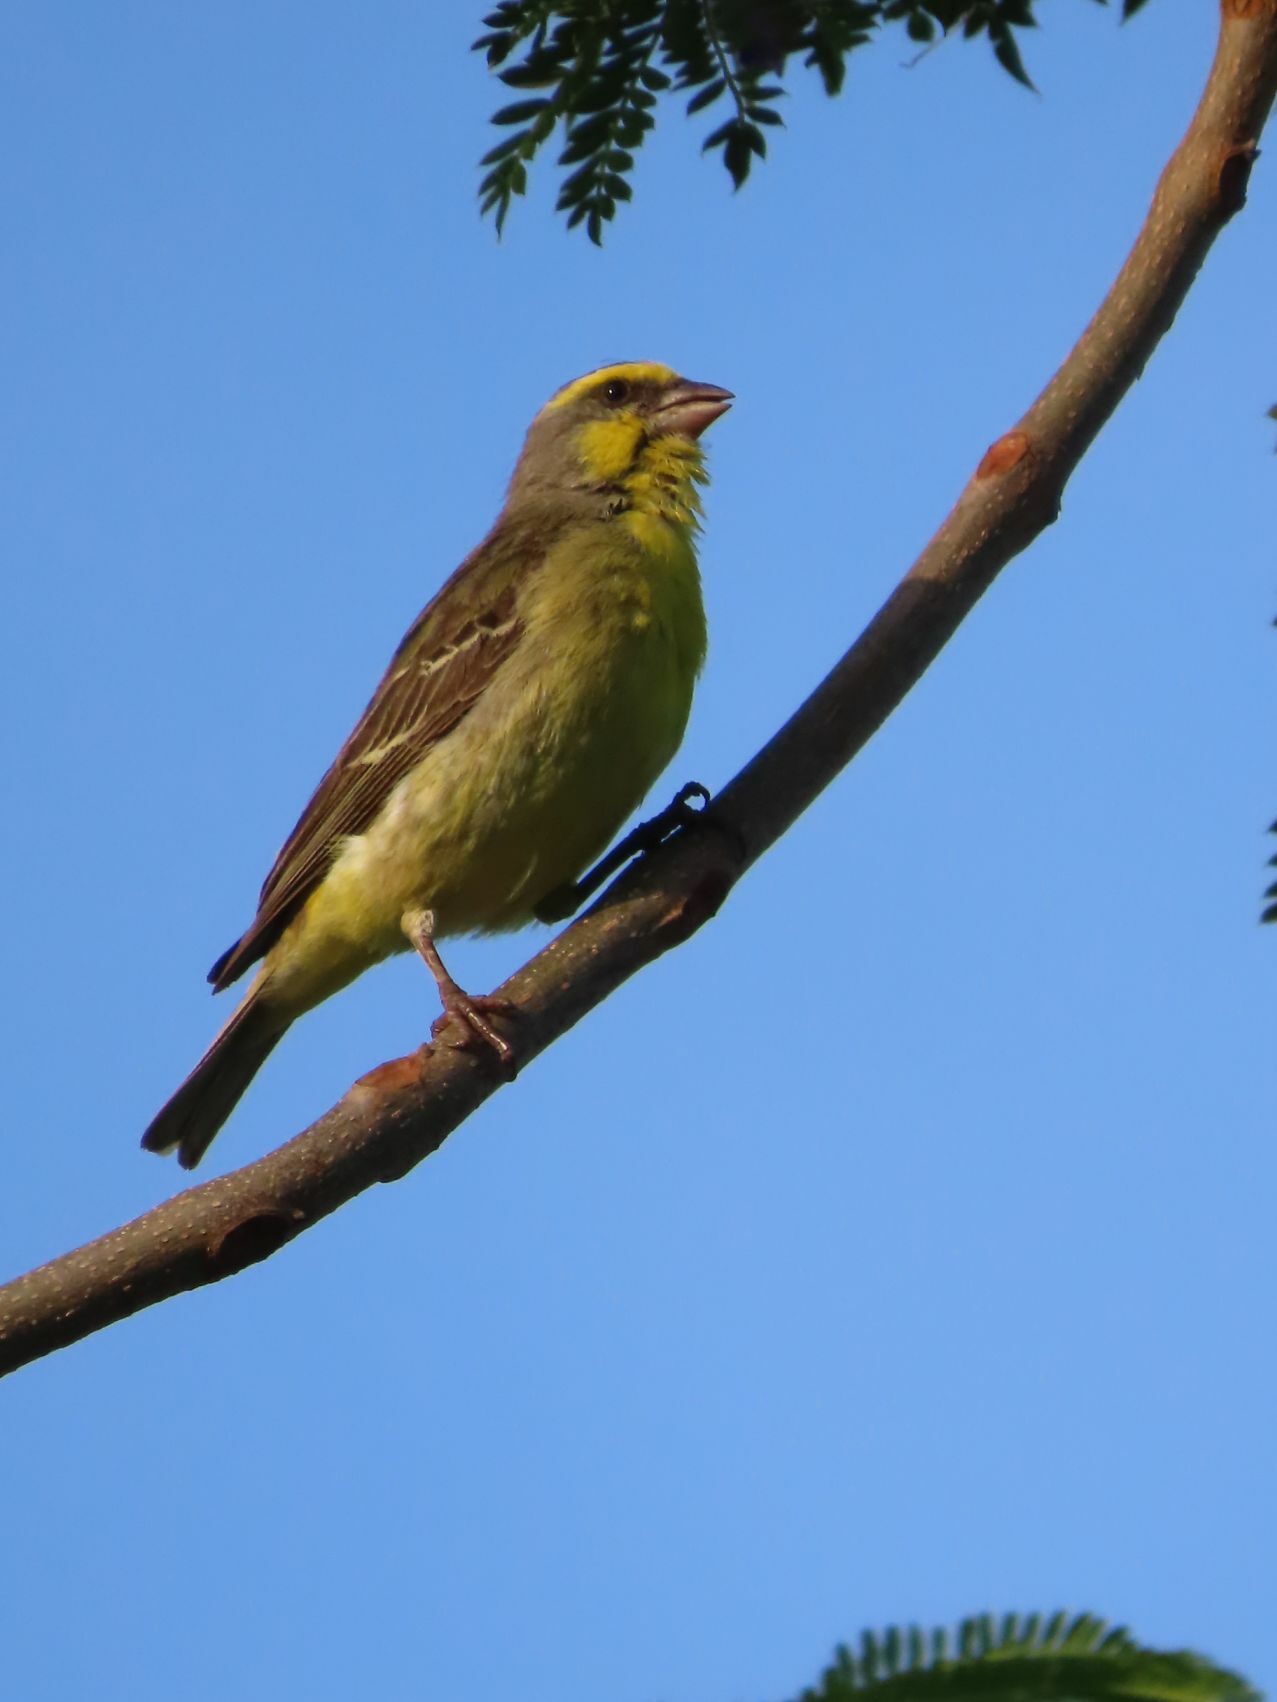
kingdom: Animalia
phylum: Chordata
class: Aves
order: Passeriformes
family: Fringillidae
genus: Crithagra
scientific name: Crithagra mozambica
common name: Yellow-fronted canary
